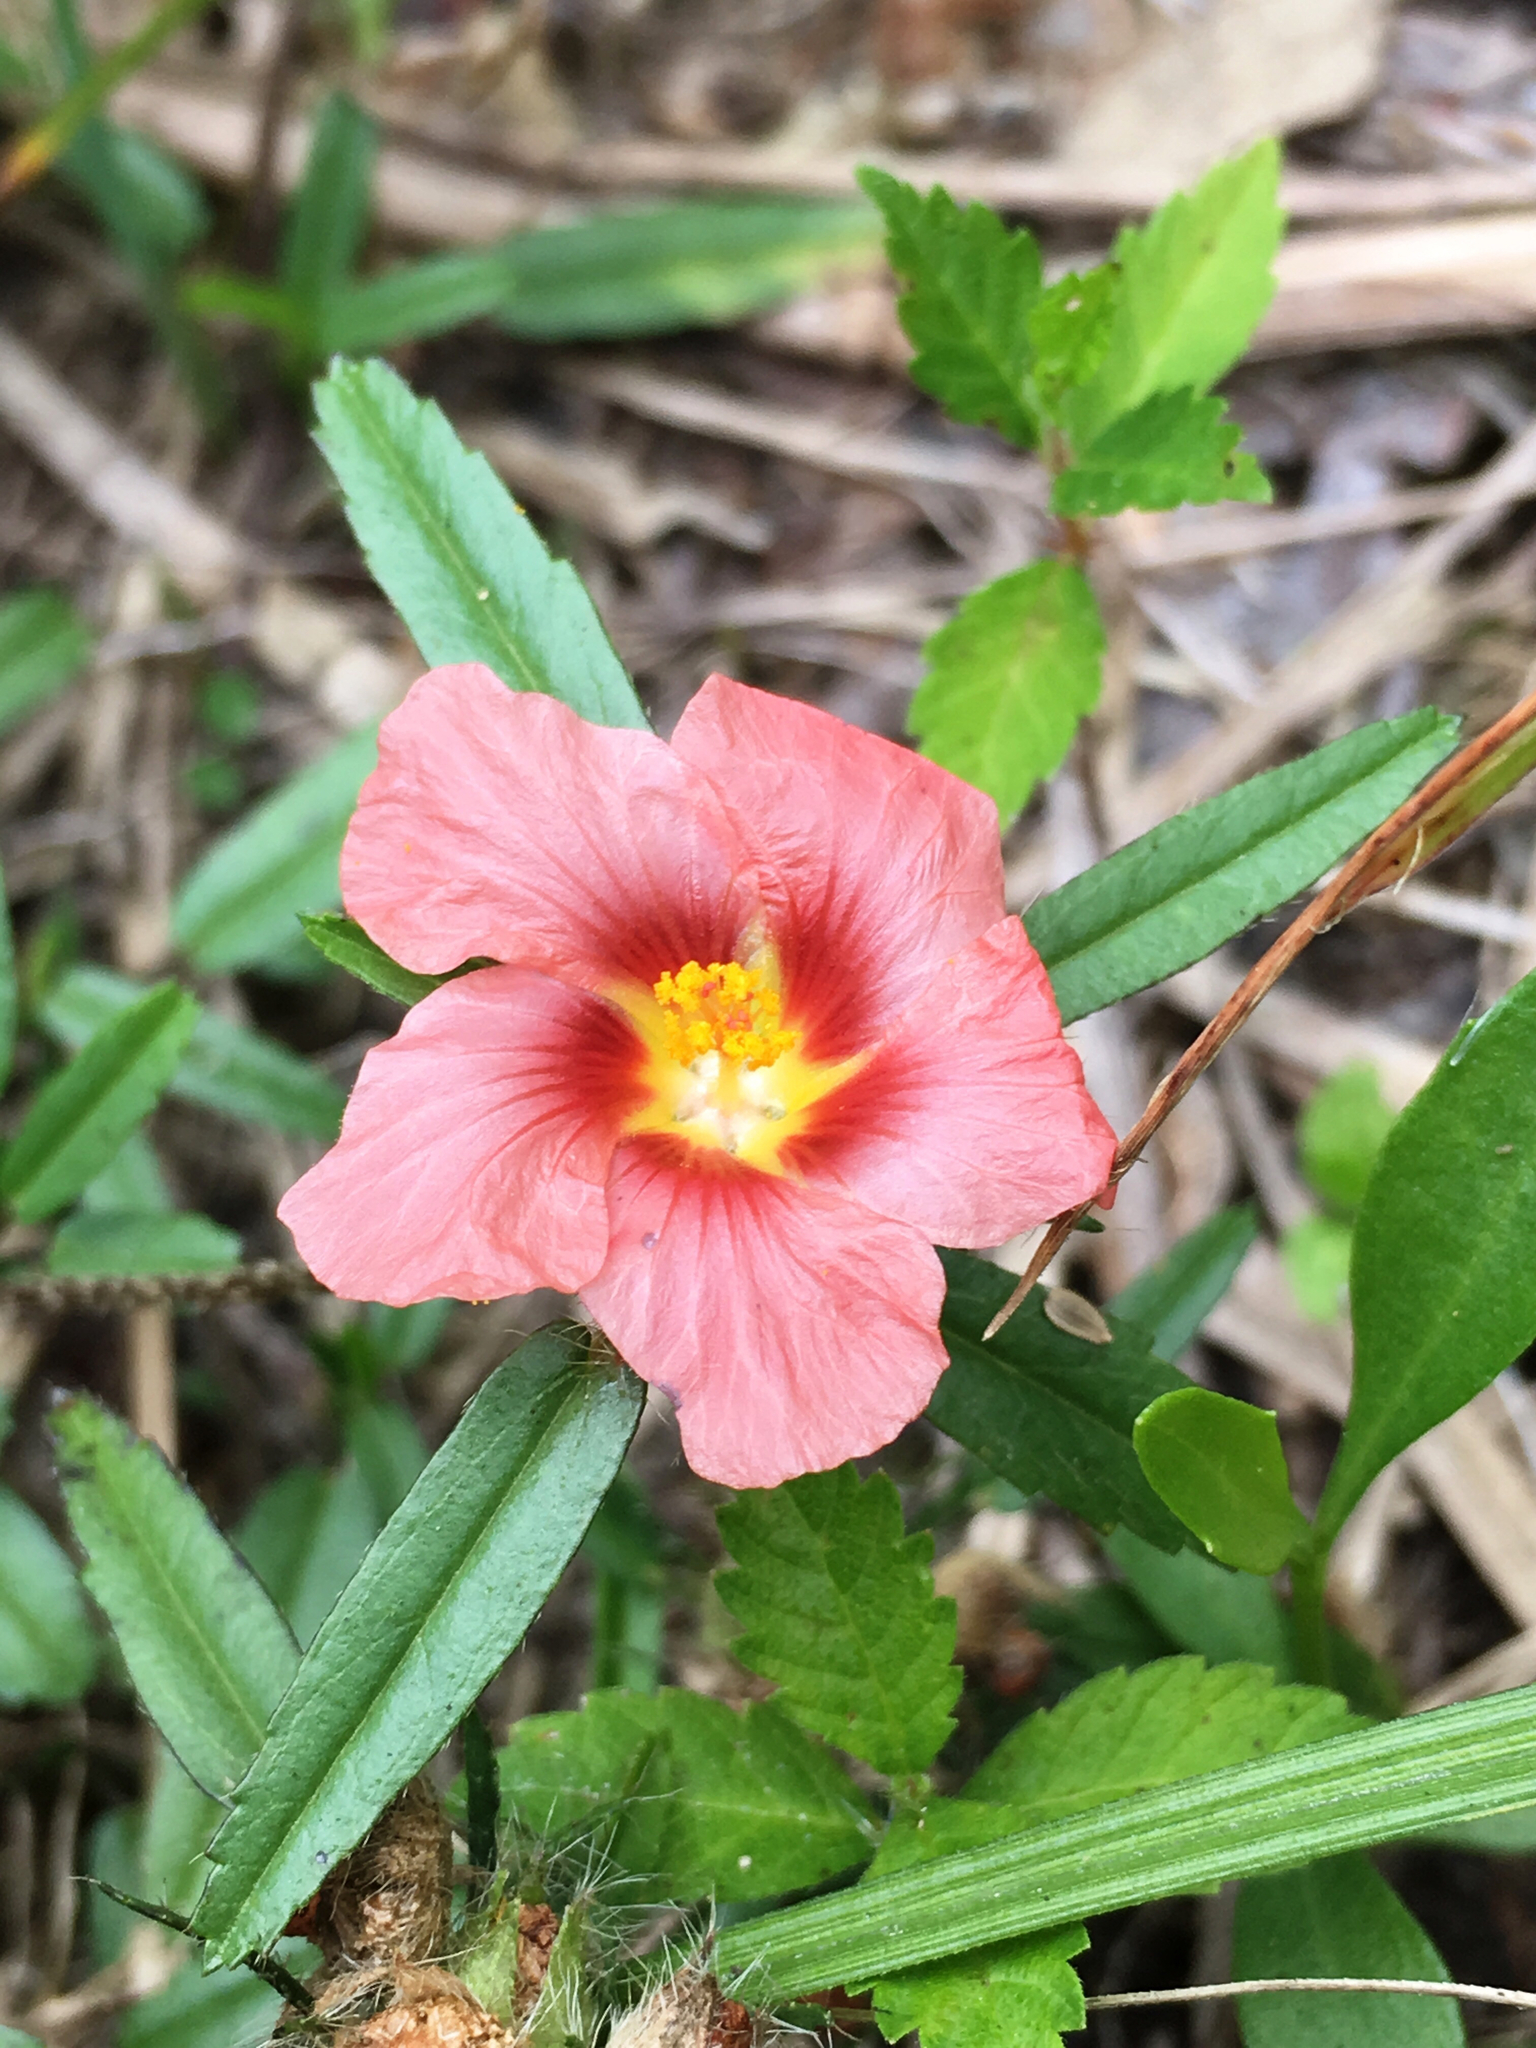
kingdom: Plantae
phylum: Tracheophyta
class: Magnoliopsida
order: Malvales
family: Malvaceae
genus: Sida
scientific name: Sida ciliaris
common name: Bracted fanpetals
